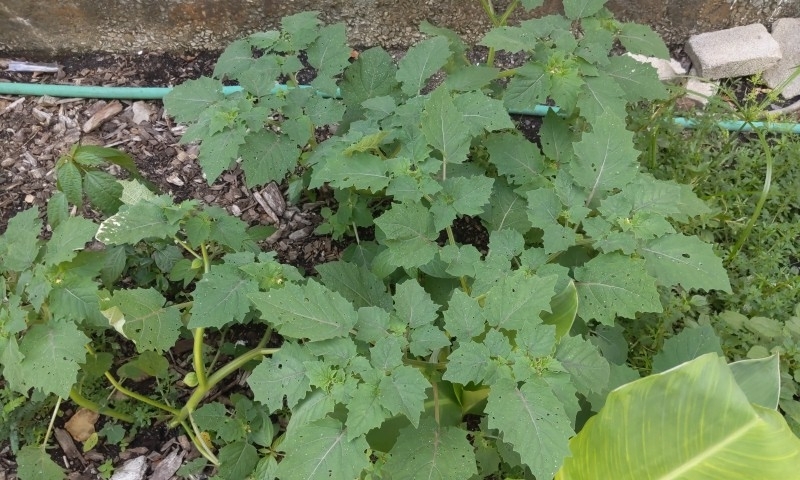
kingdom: Plantae
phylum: Tracheophyta
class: Magnoliopsida
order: Solanales
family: Solanaceae
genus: Physalis
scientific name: Physalis grisea
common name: Dwarf cape-gooseberry
